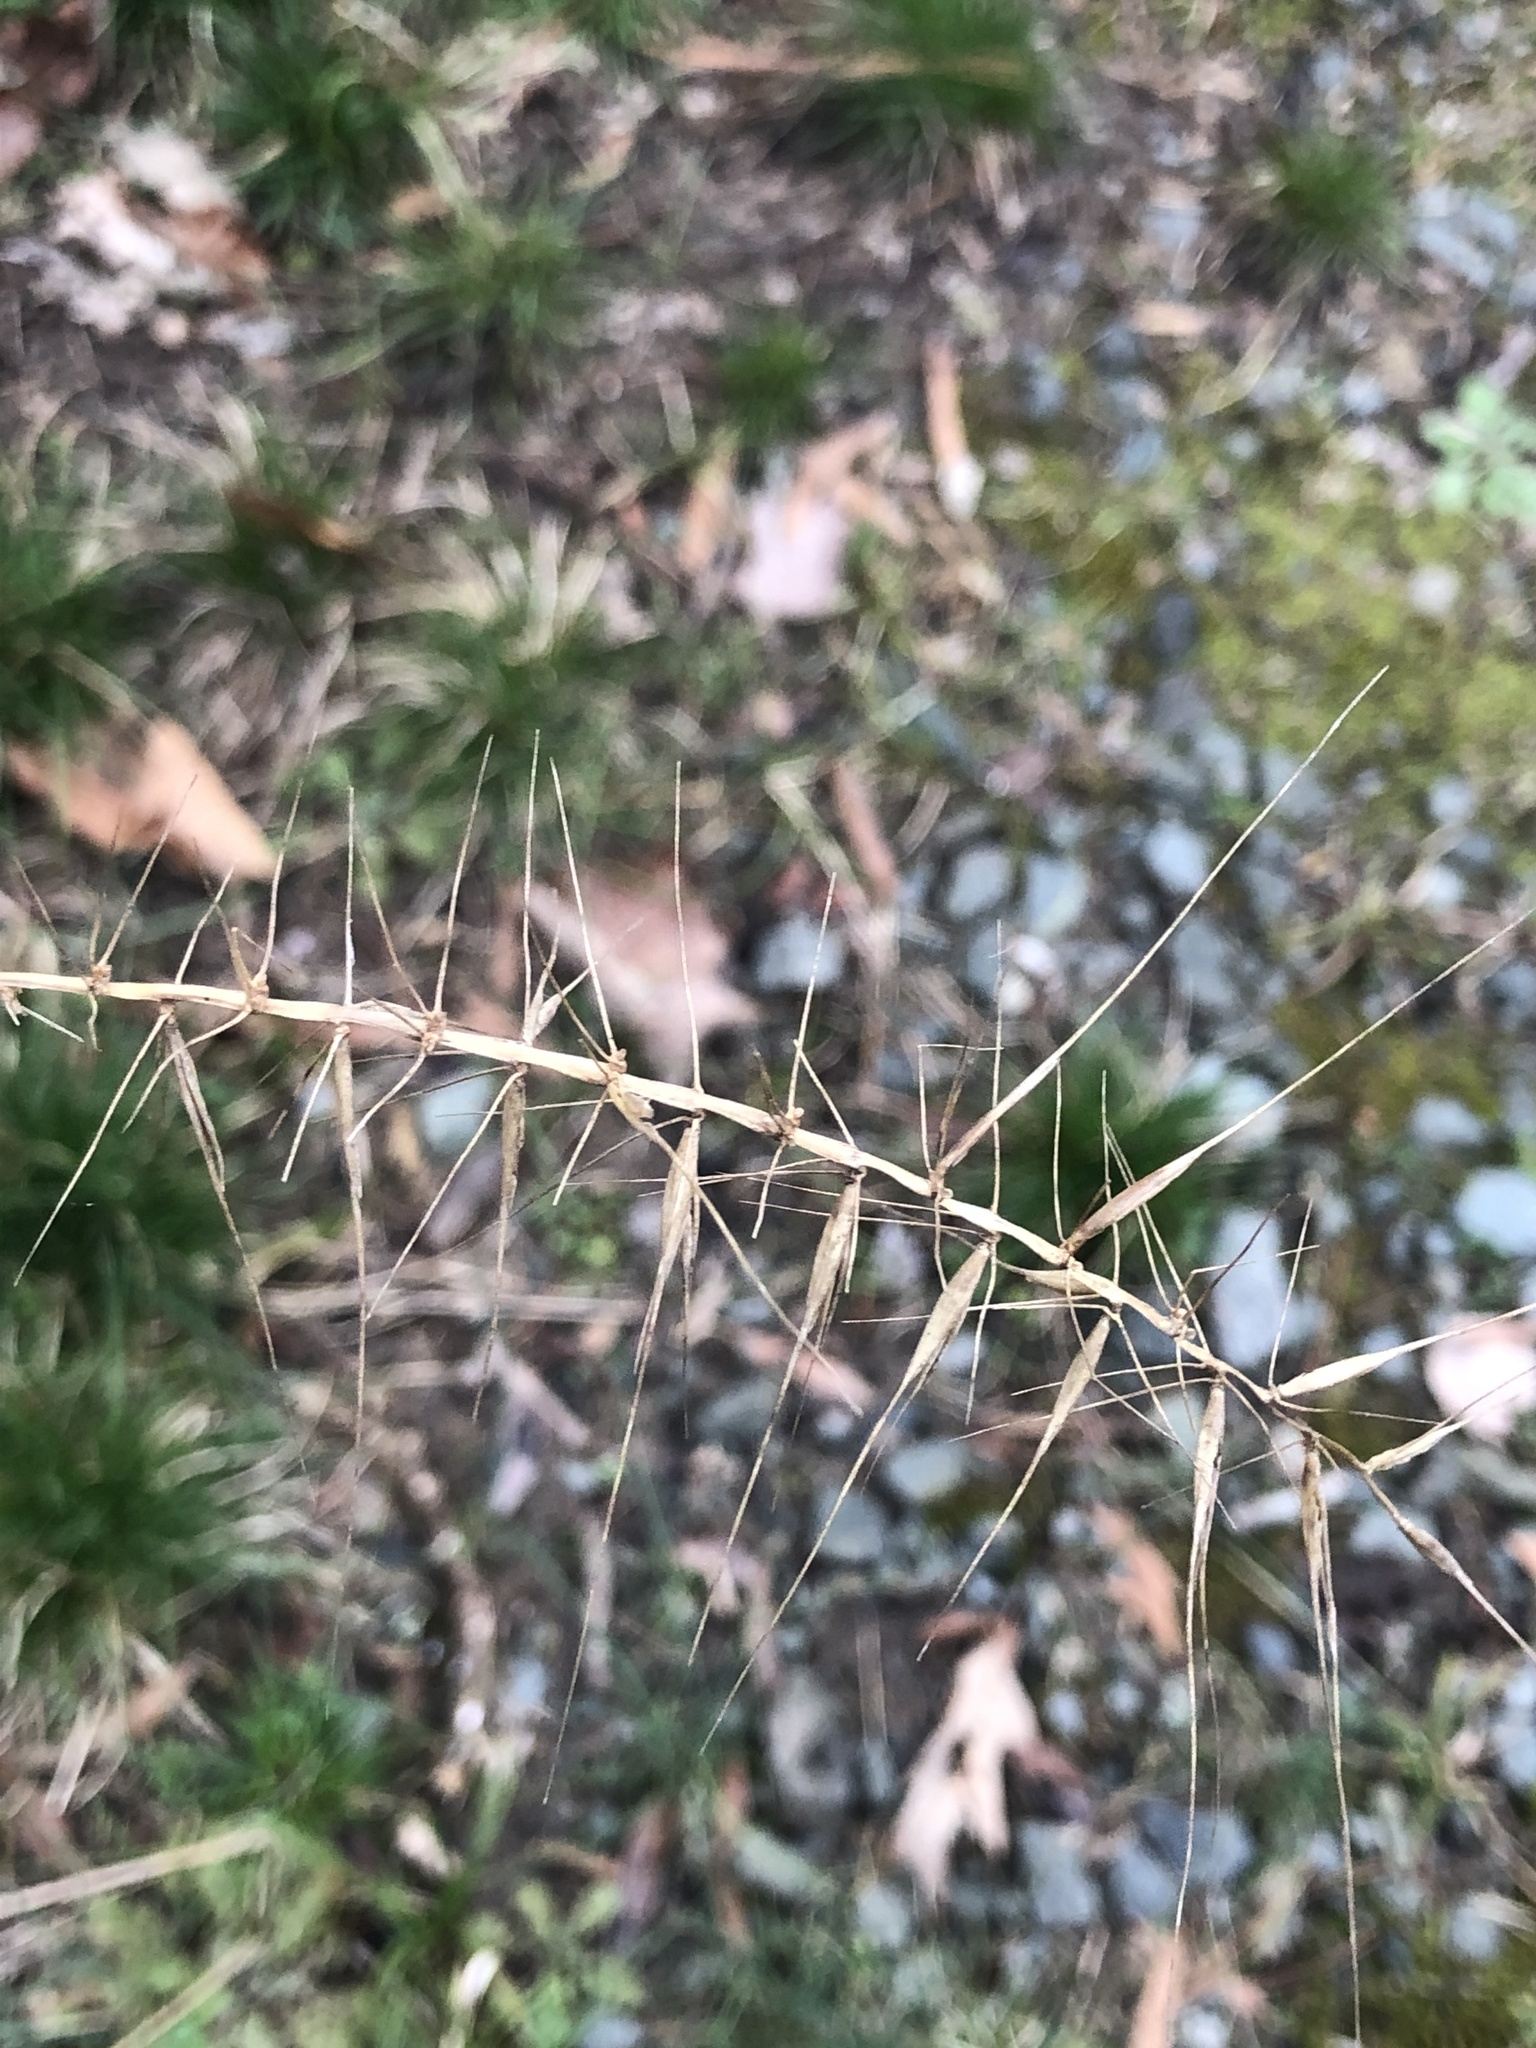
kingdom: Plantae
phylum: Tracheophyta
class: Liliopsida
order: Poales
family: Poaceae
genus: Elymus
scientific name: Elymus hystrix
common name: Bottlebrush grass
